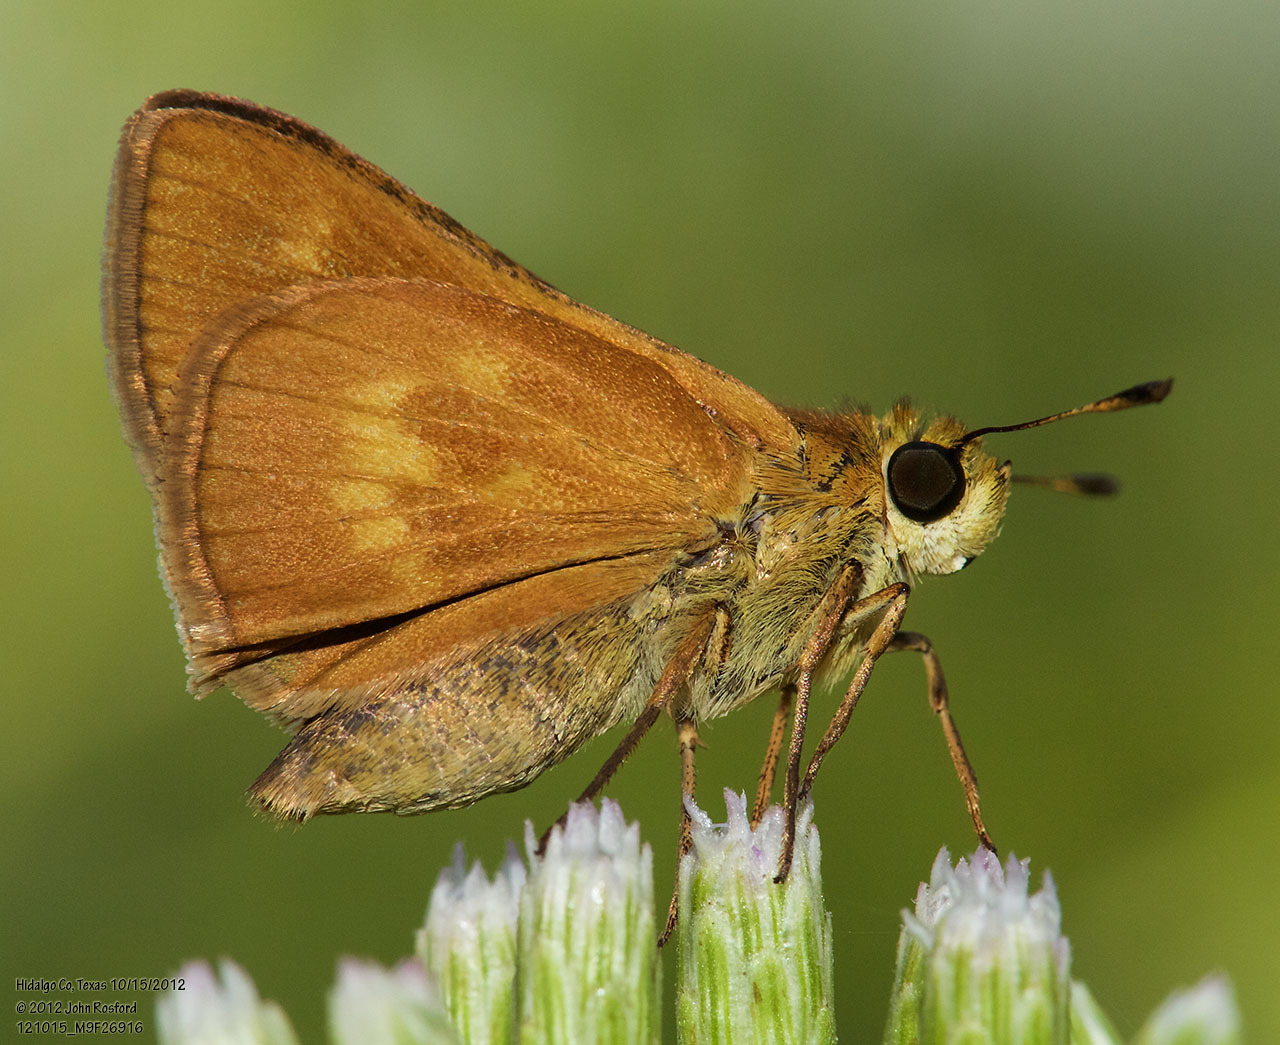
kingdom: Animalia
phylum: Arthropoda
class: Insecta
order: Lepidoptera
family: Hesperiidae
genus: Polites
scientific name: Polites otho
